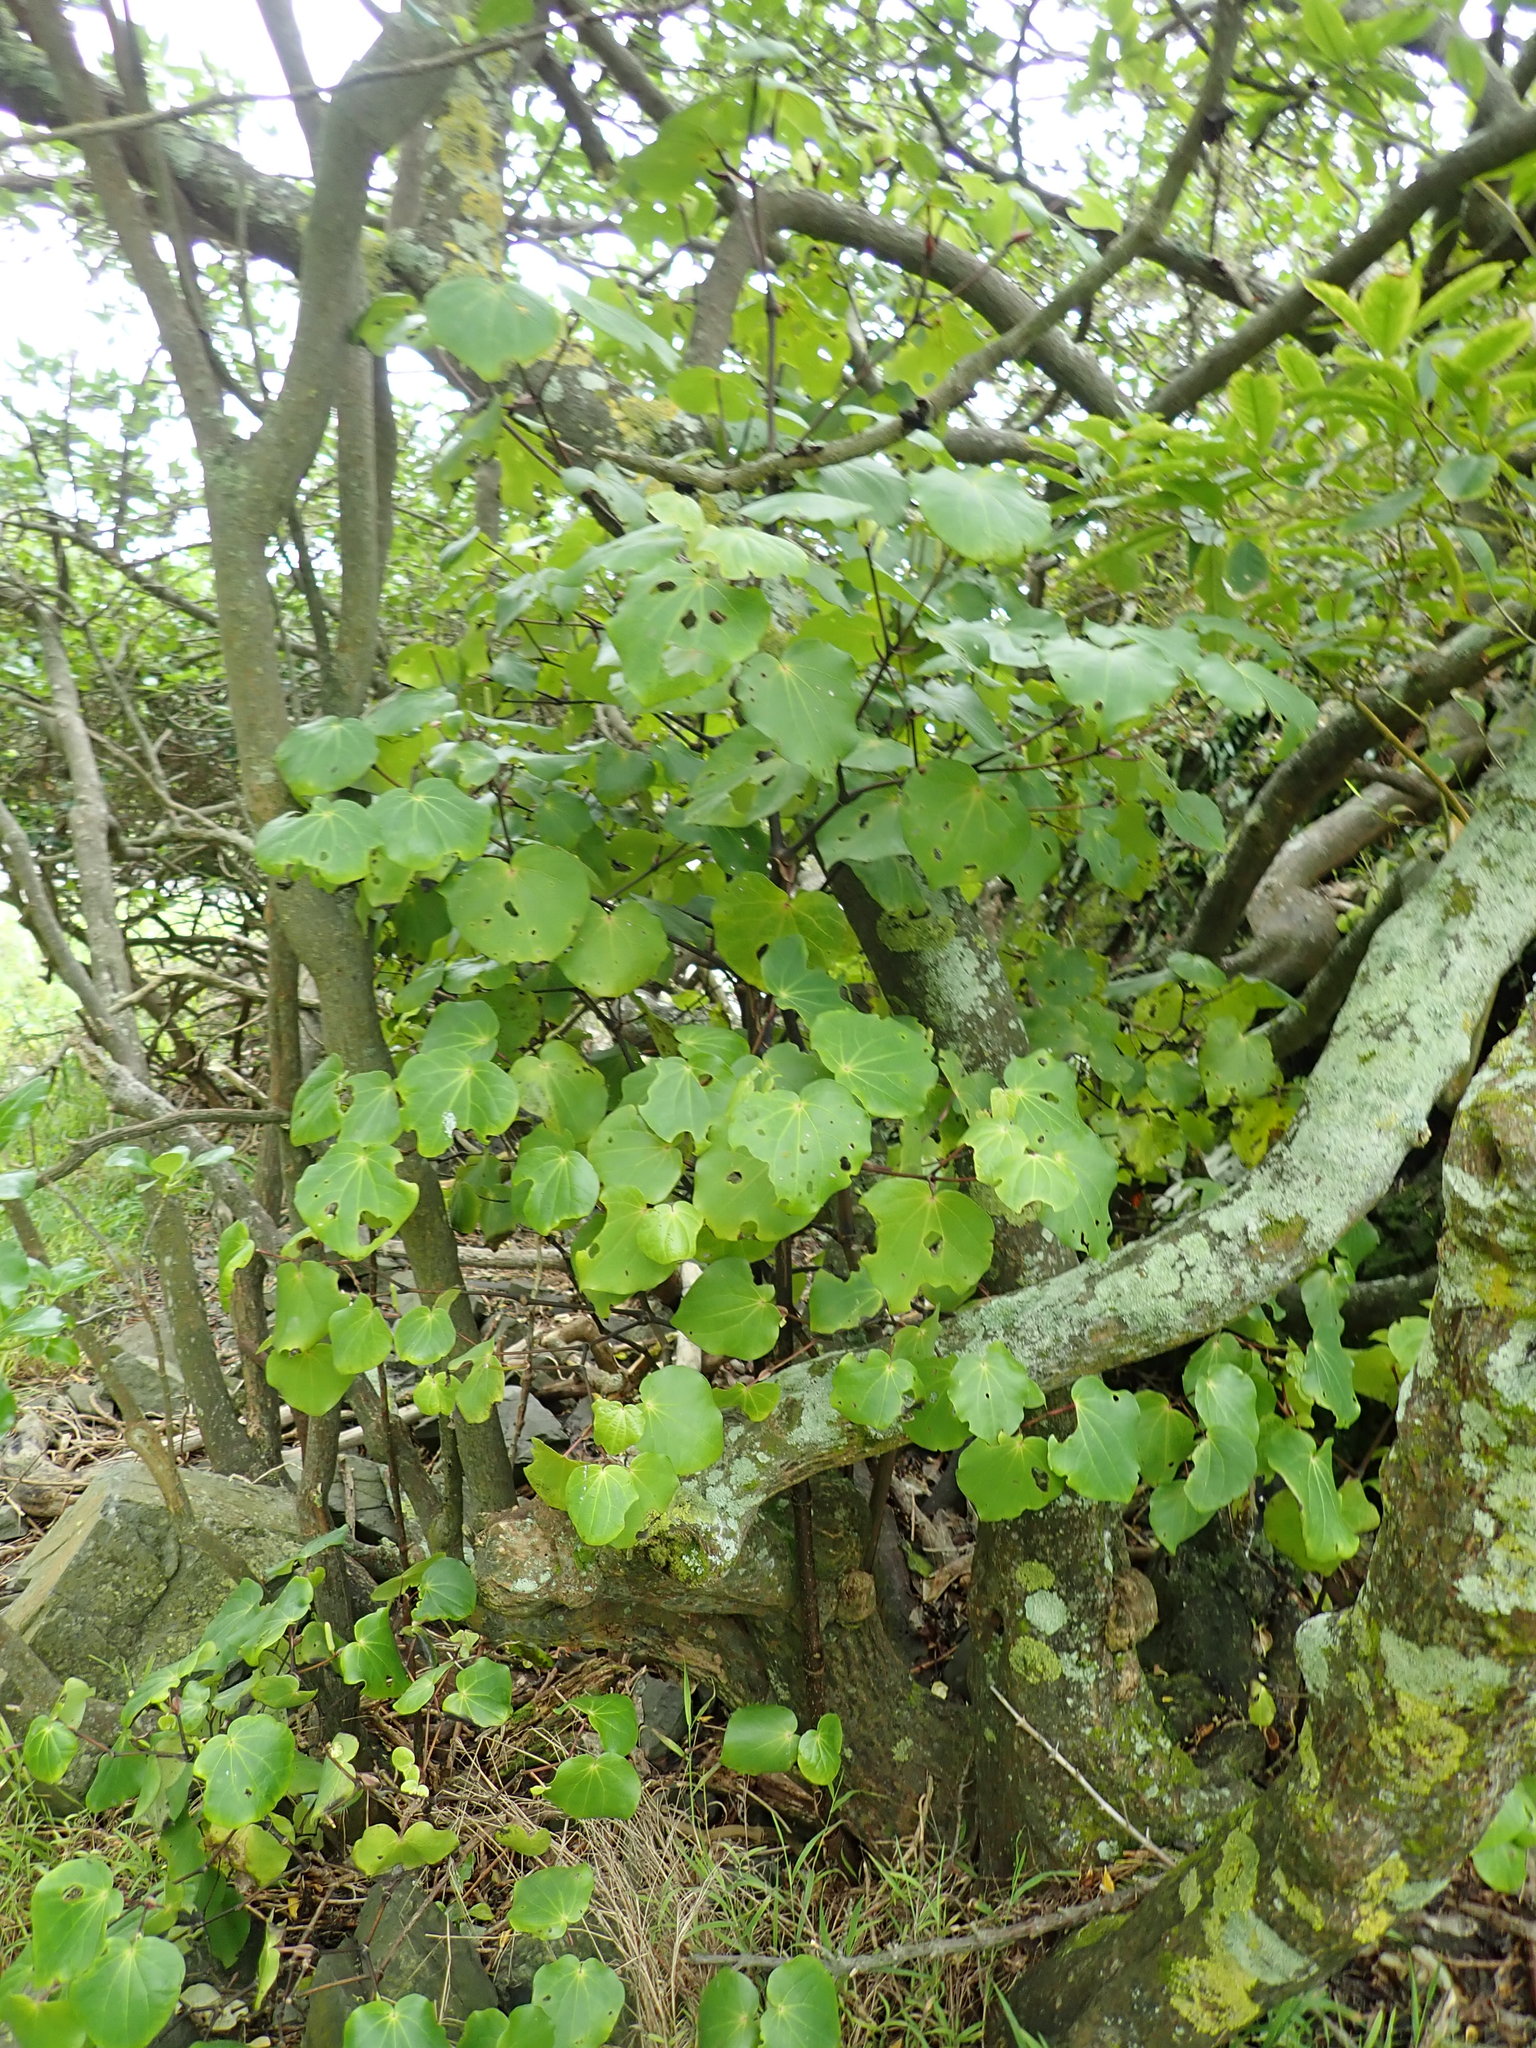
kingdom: Plantae
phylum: Tracheophyta
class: Magnoliopsida
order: Piperales
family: Piperaceae
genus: Macropiper
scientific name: Macropiper excelsum
